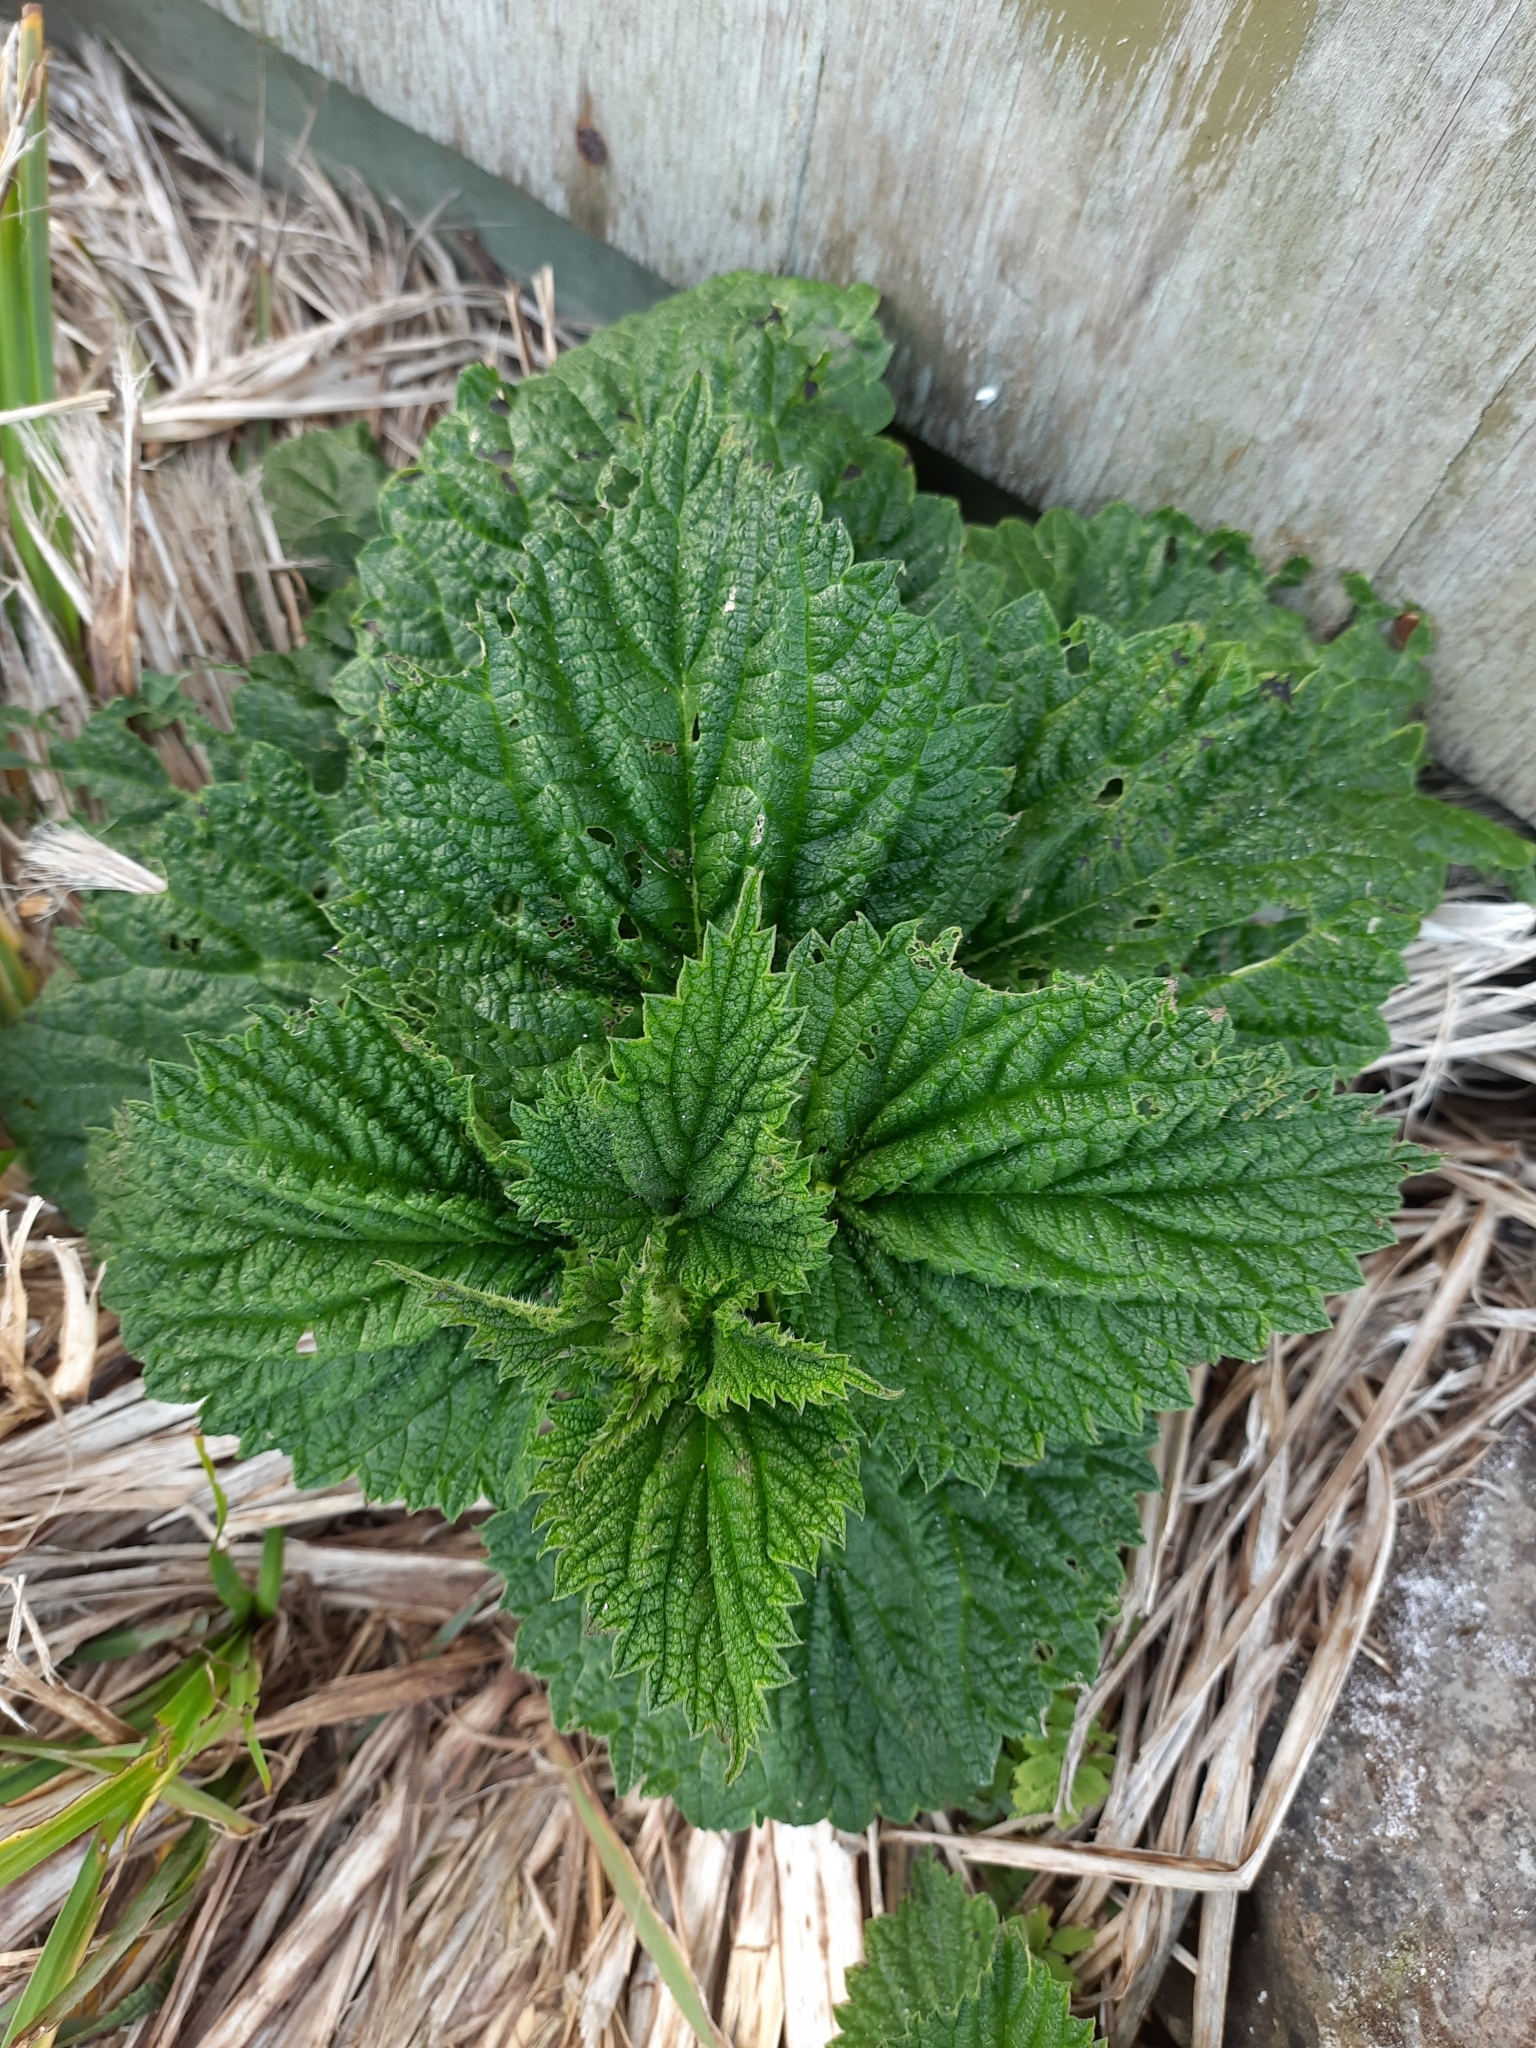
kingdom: Plantae
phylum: Tracheophyta
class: Magnoliopsida
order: Rosales
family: Urticaceae
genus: Urtica
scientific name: Urtica australis
